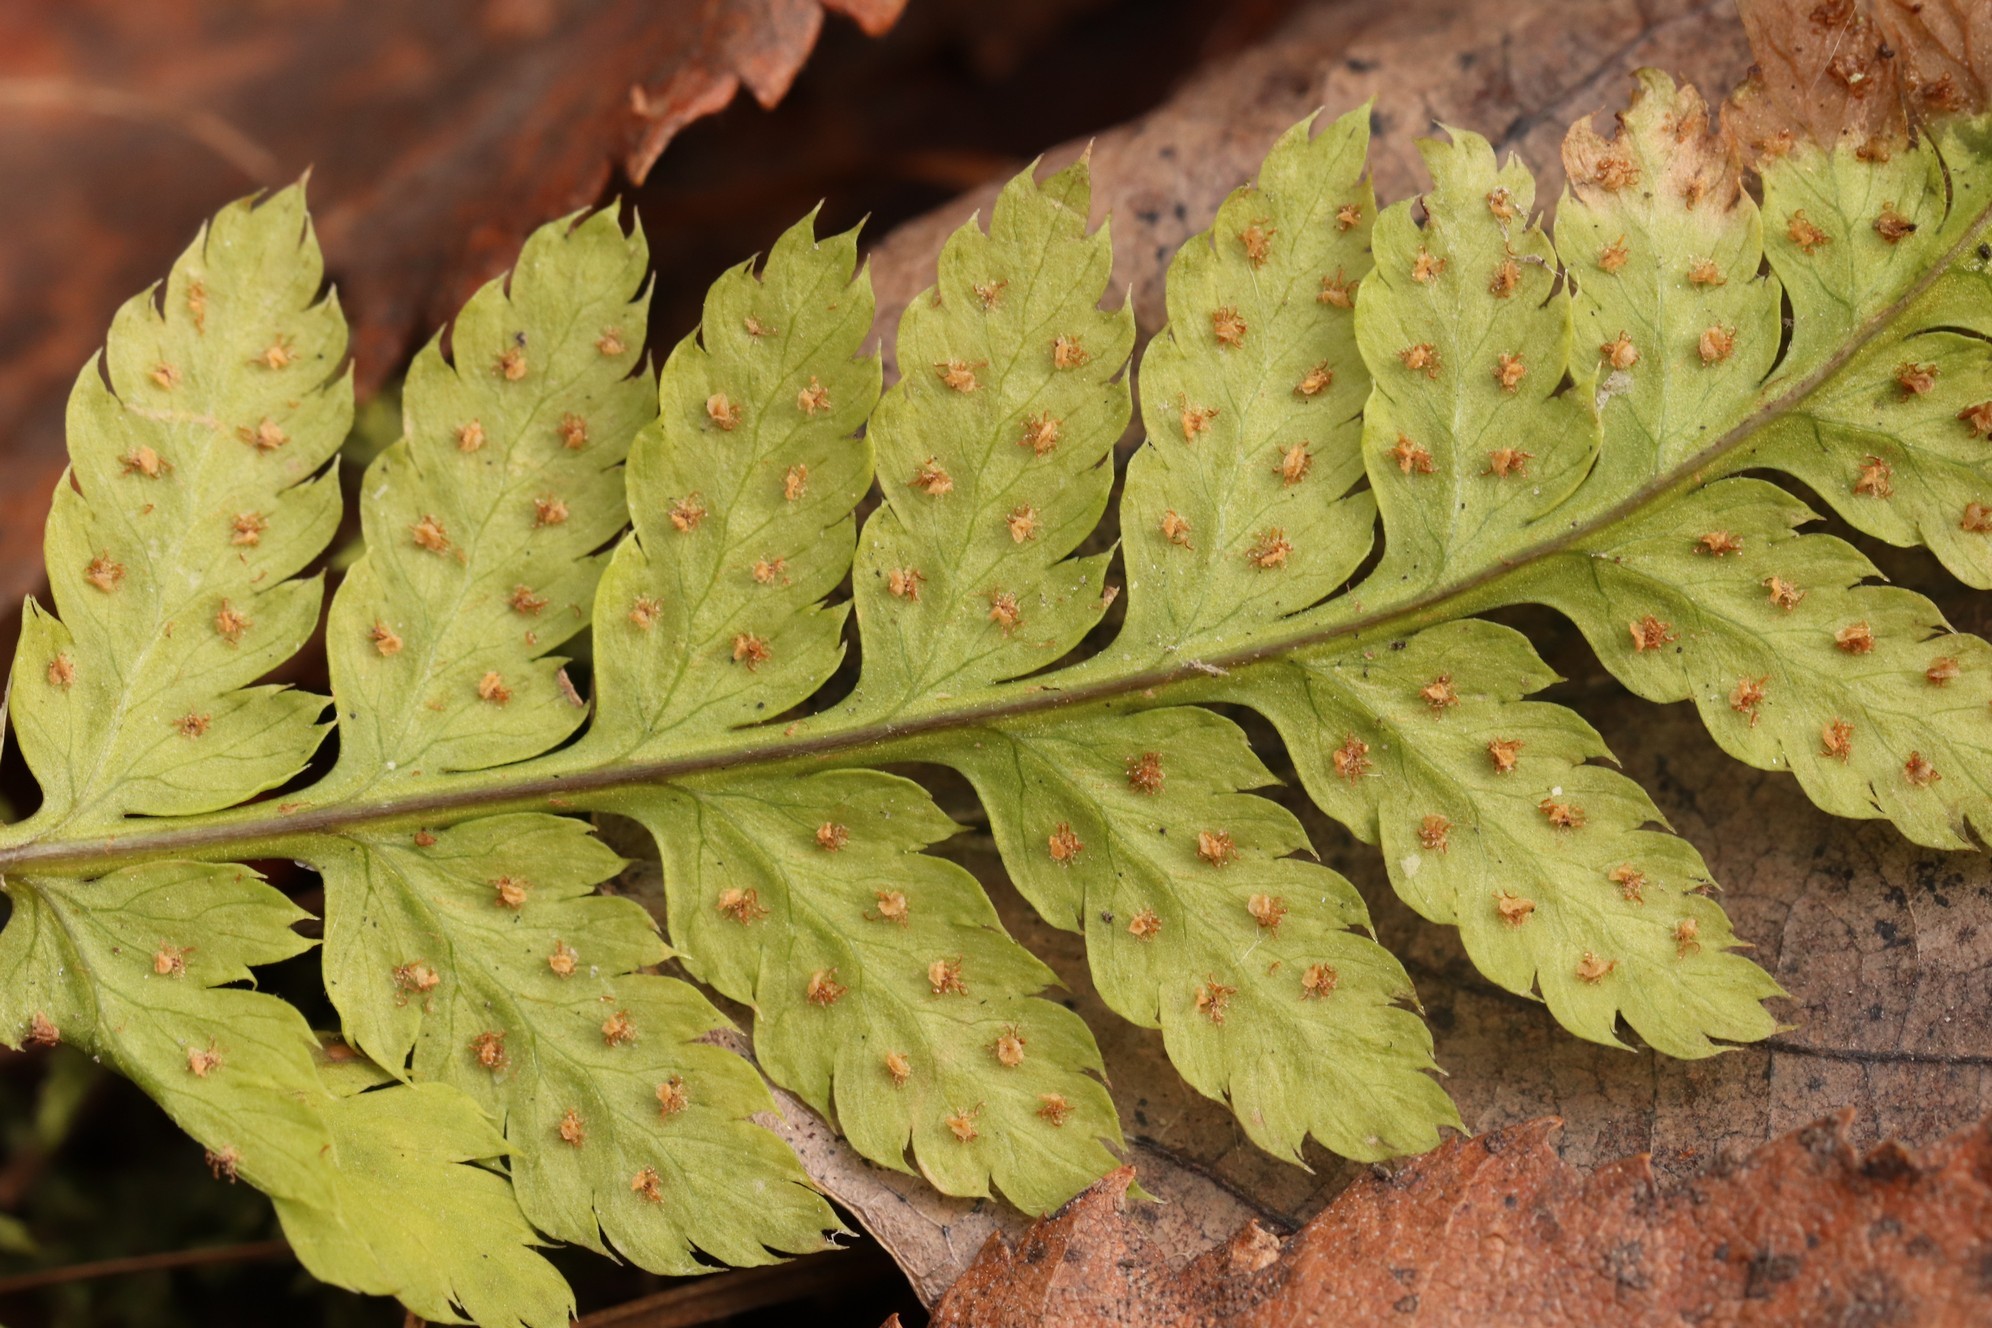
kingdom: Plantae
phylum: Tracheophyta
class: Polypodiopsida
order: Polypodiales
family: Dryopteridaceae
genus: Dryopteris
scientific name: Dryopteris carthusiana
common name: Narrow buckler-fern
